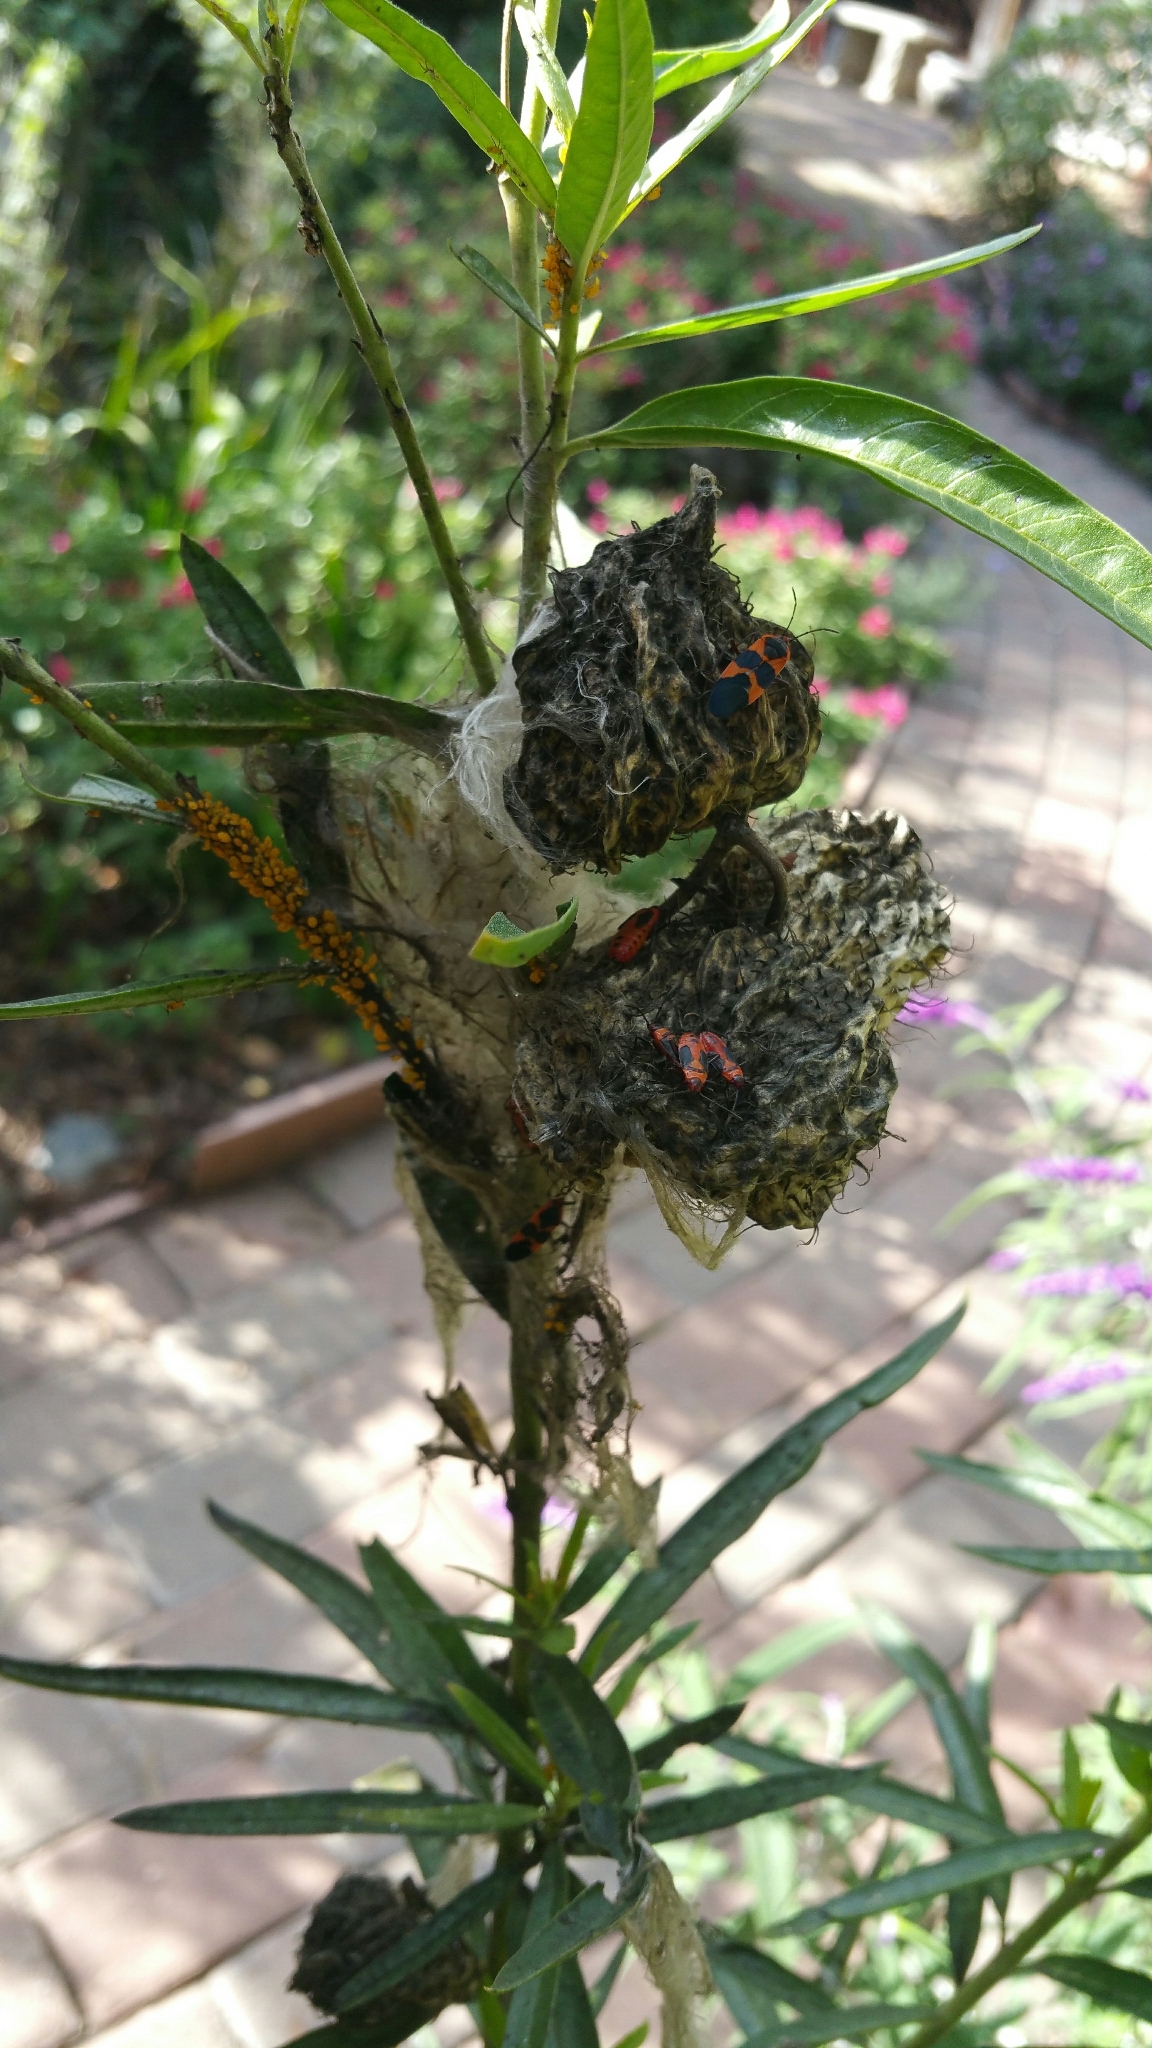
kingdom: Animalia
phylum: Arthropoda
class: Insecta
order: Hemiptera
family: Lygaeidae
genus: Oncopeltus
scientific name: Oncopeltus fasciatus
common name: Large milkweed bug
